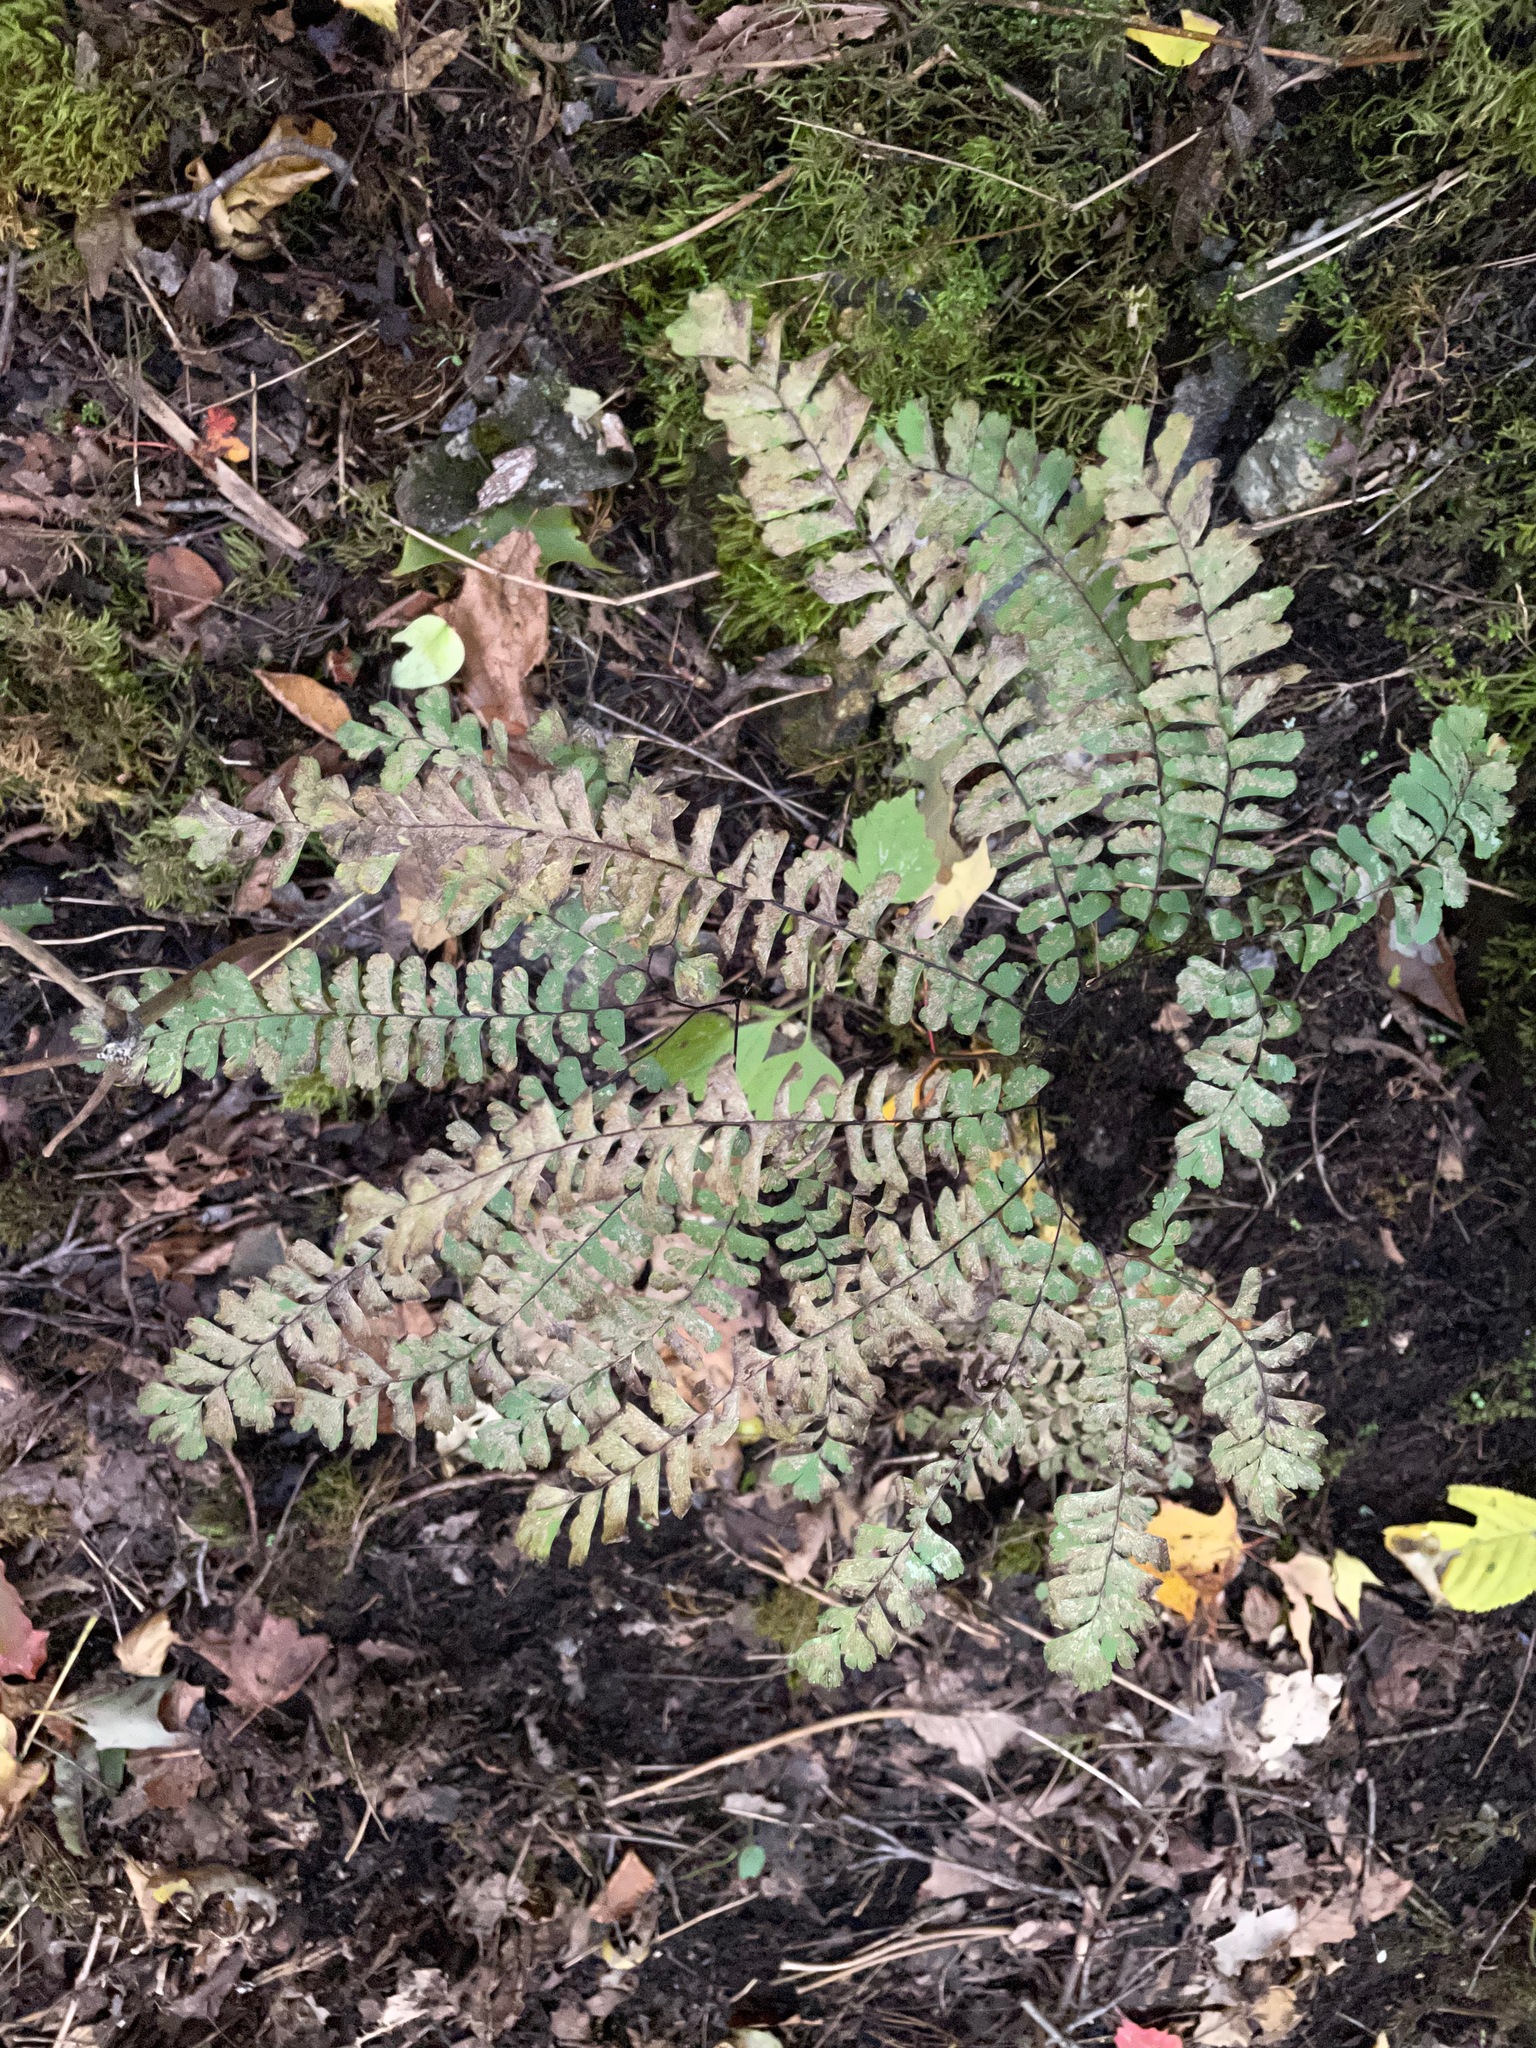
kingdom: Plantae
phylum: Tracheophyta
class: Polypodiopsida
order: Polypodiales
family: Pteridaceae
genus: Adiantum
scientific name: Adiantum pedatum
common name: Five-finger fern
